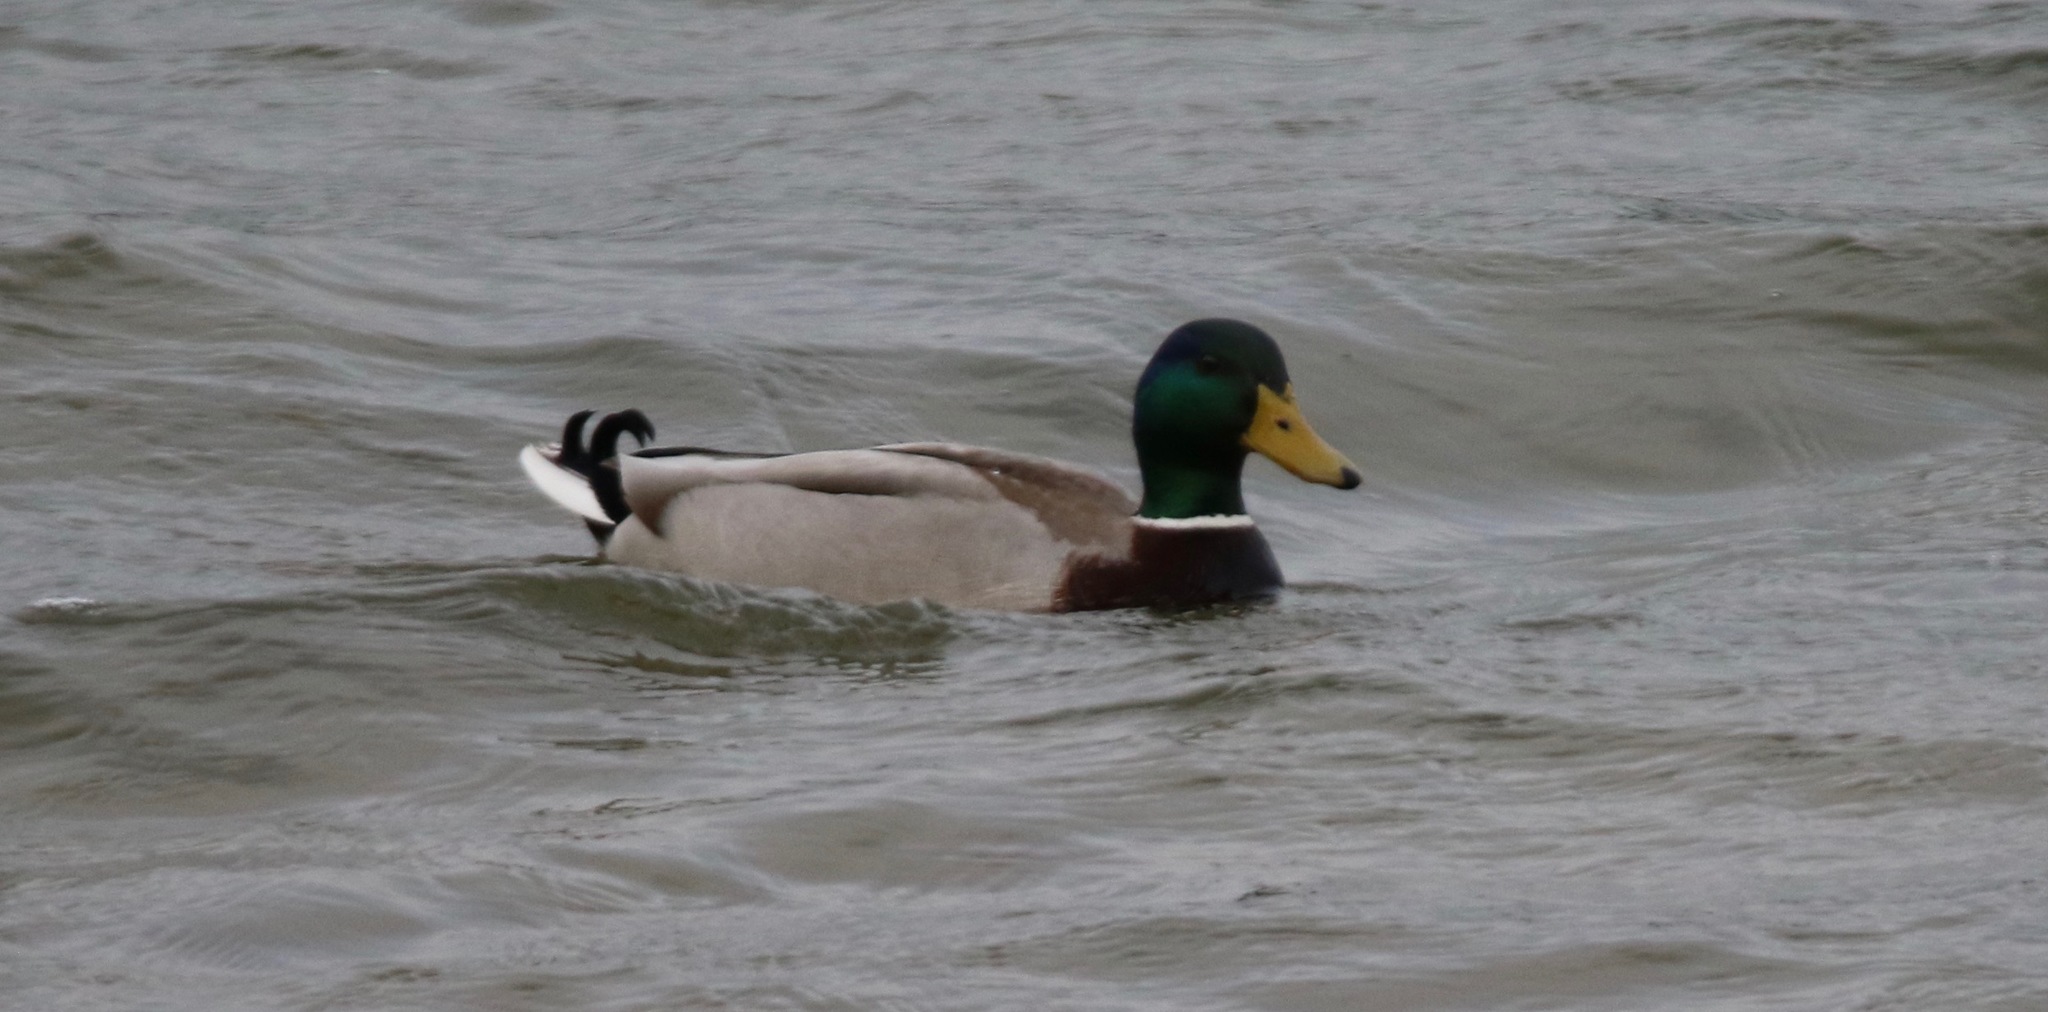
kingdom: Animalia
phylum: Chordata
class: Aves
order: Anseriformes
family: Anatidae
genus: Anas
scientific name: Anas platyrhynchos
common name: Mallard
